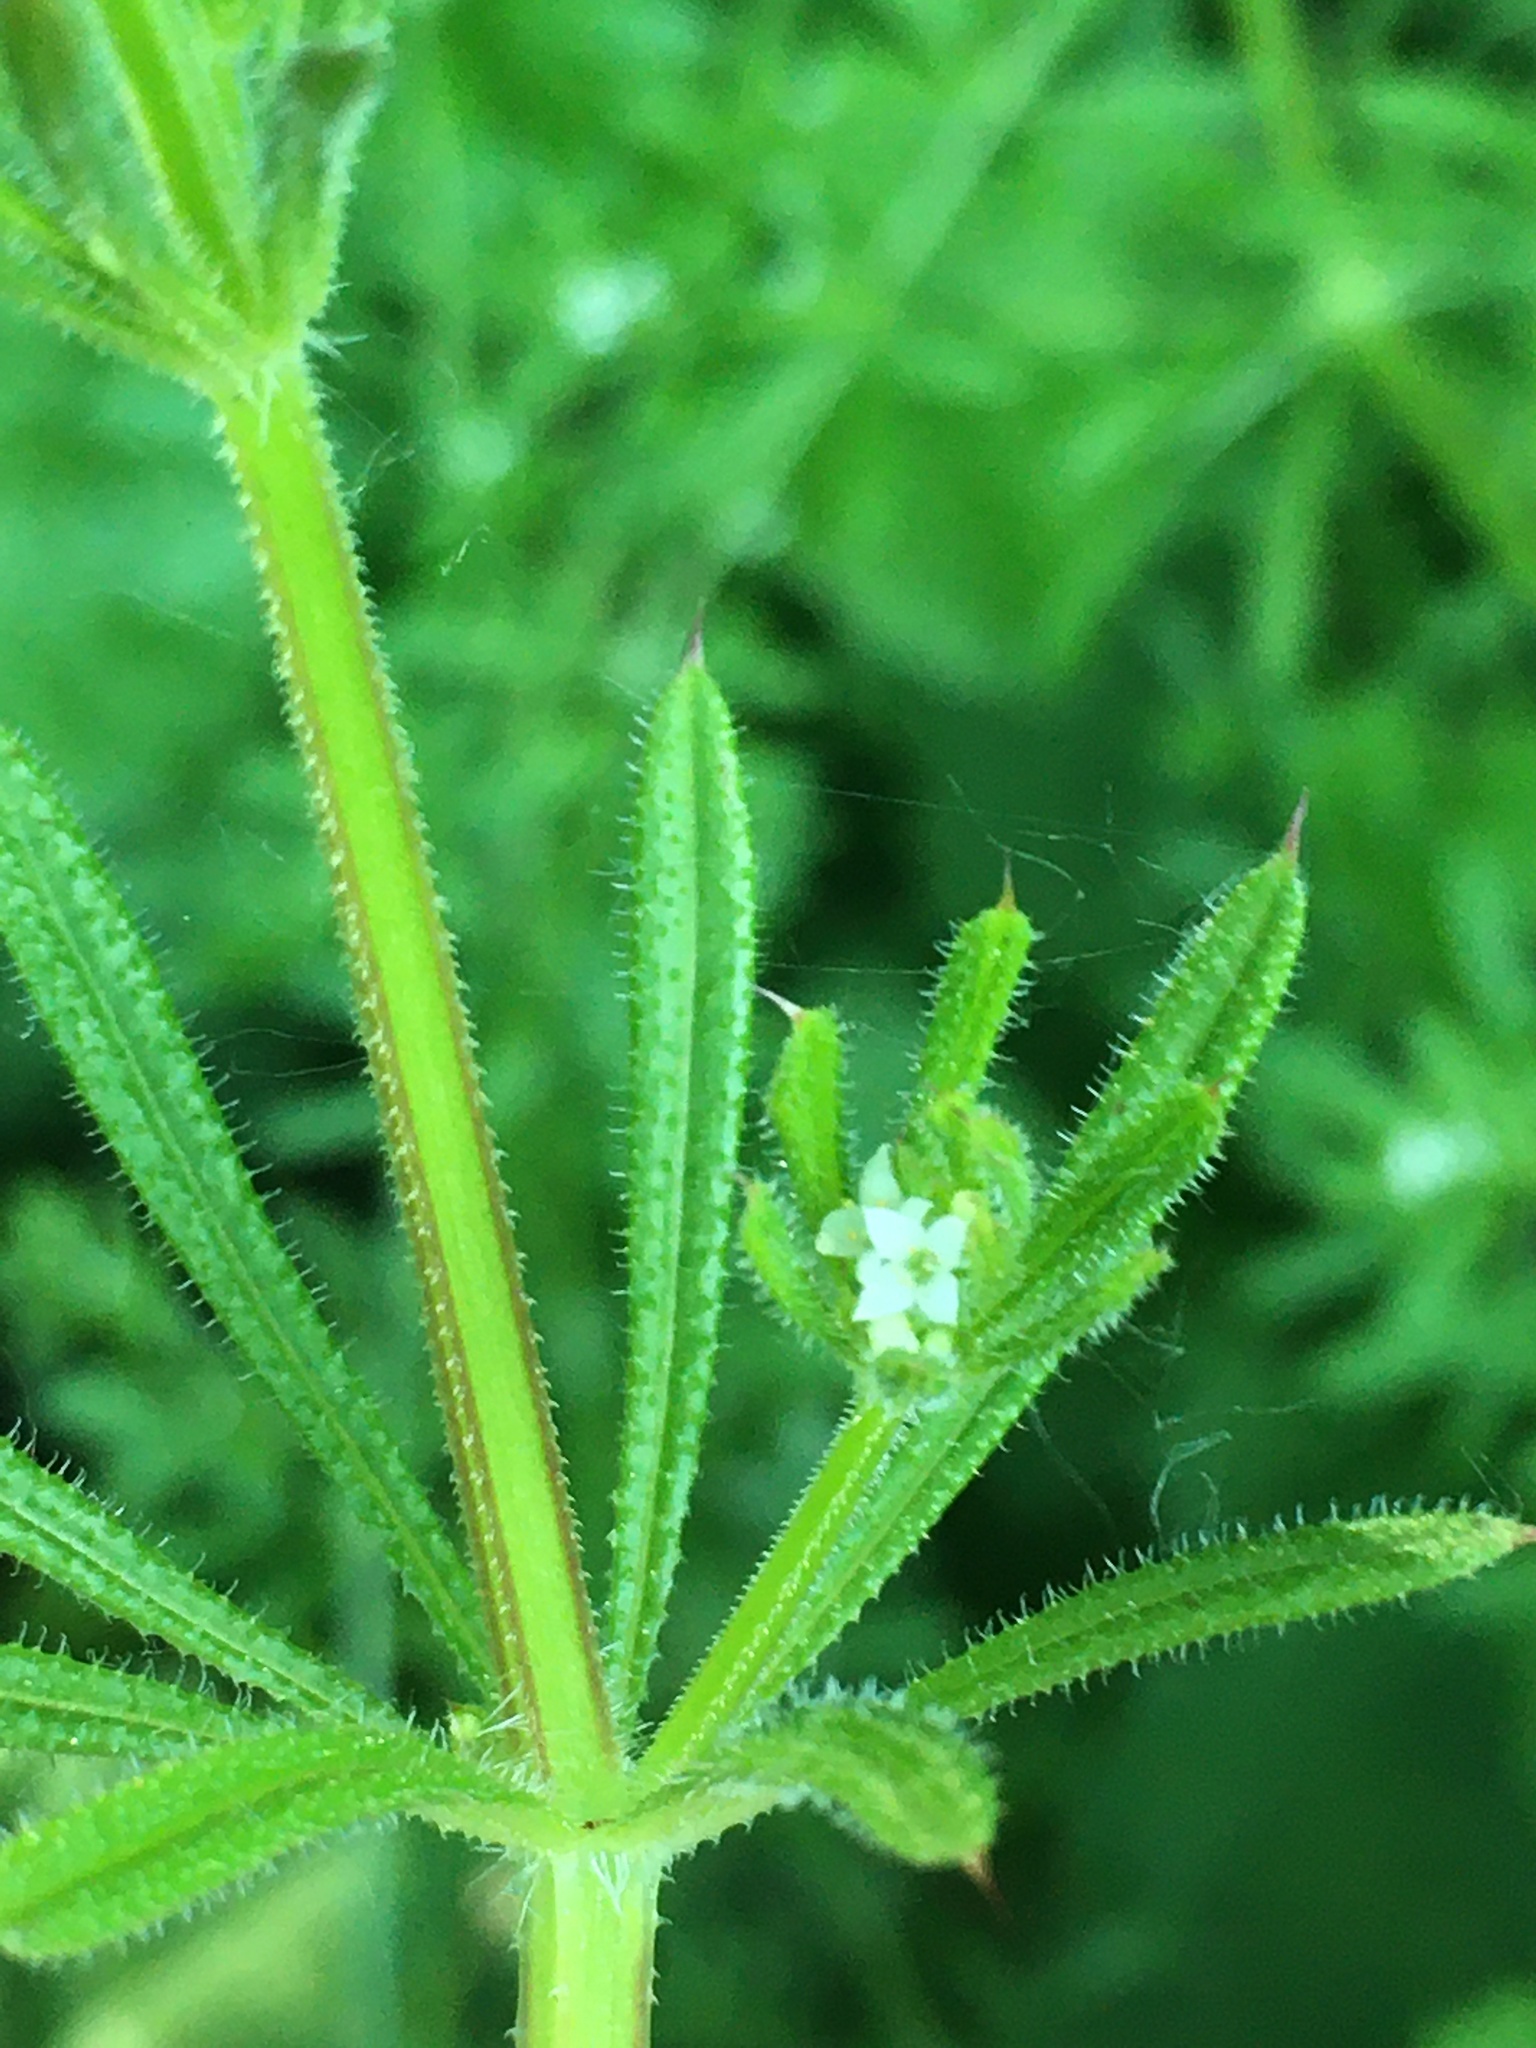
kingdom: Plantae
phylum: Tracheophyta
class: Magnoliopsida
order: Gentianales
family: Rubiaceae
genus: Galium
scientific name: Galium aparine
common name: Cleavers
